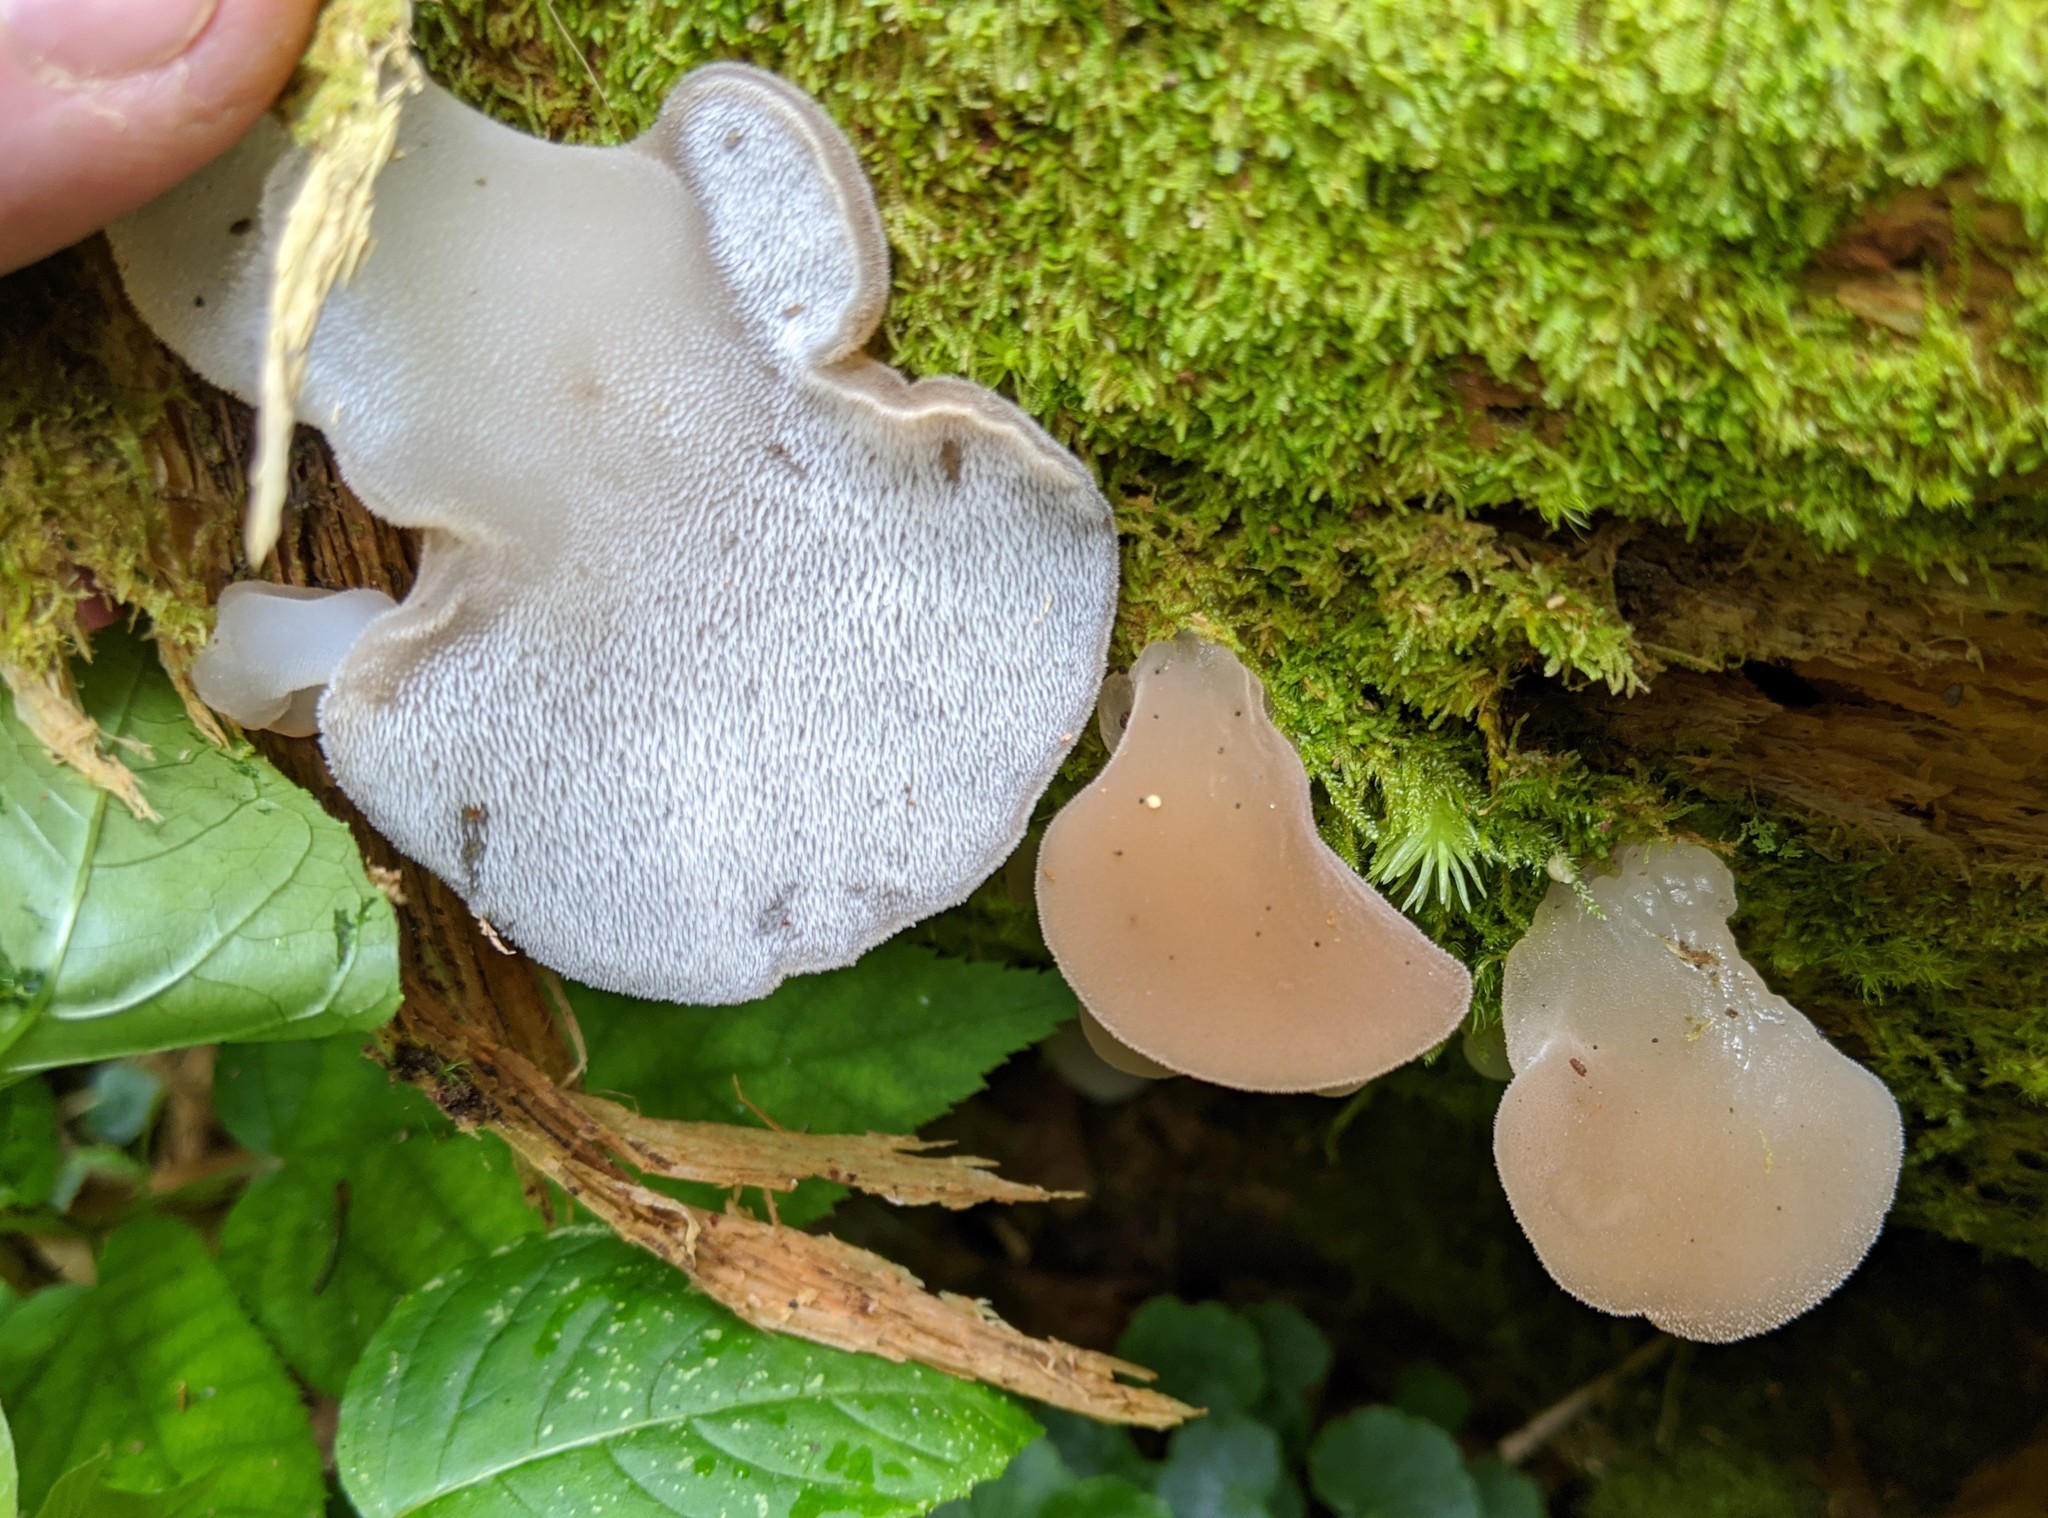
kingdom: Fungi
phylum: Basidiomycota
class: Agaricomycetes
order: Auriculariales
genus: Pseudohydnum
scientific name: Pseudohydnum gelatinosum
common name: Jelly tongue
